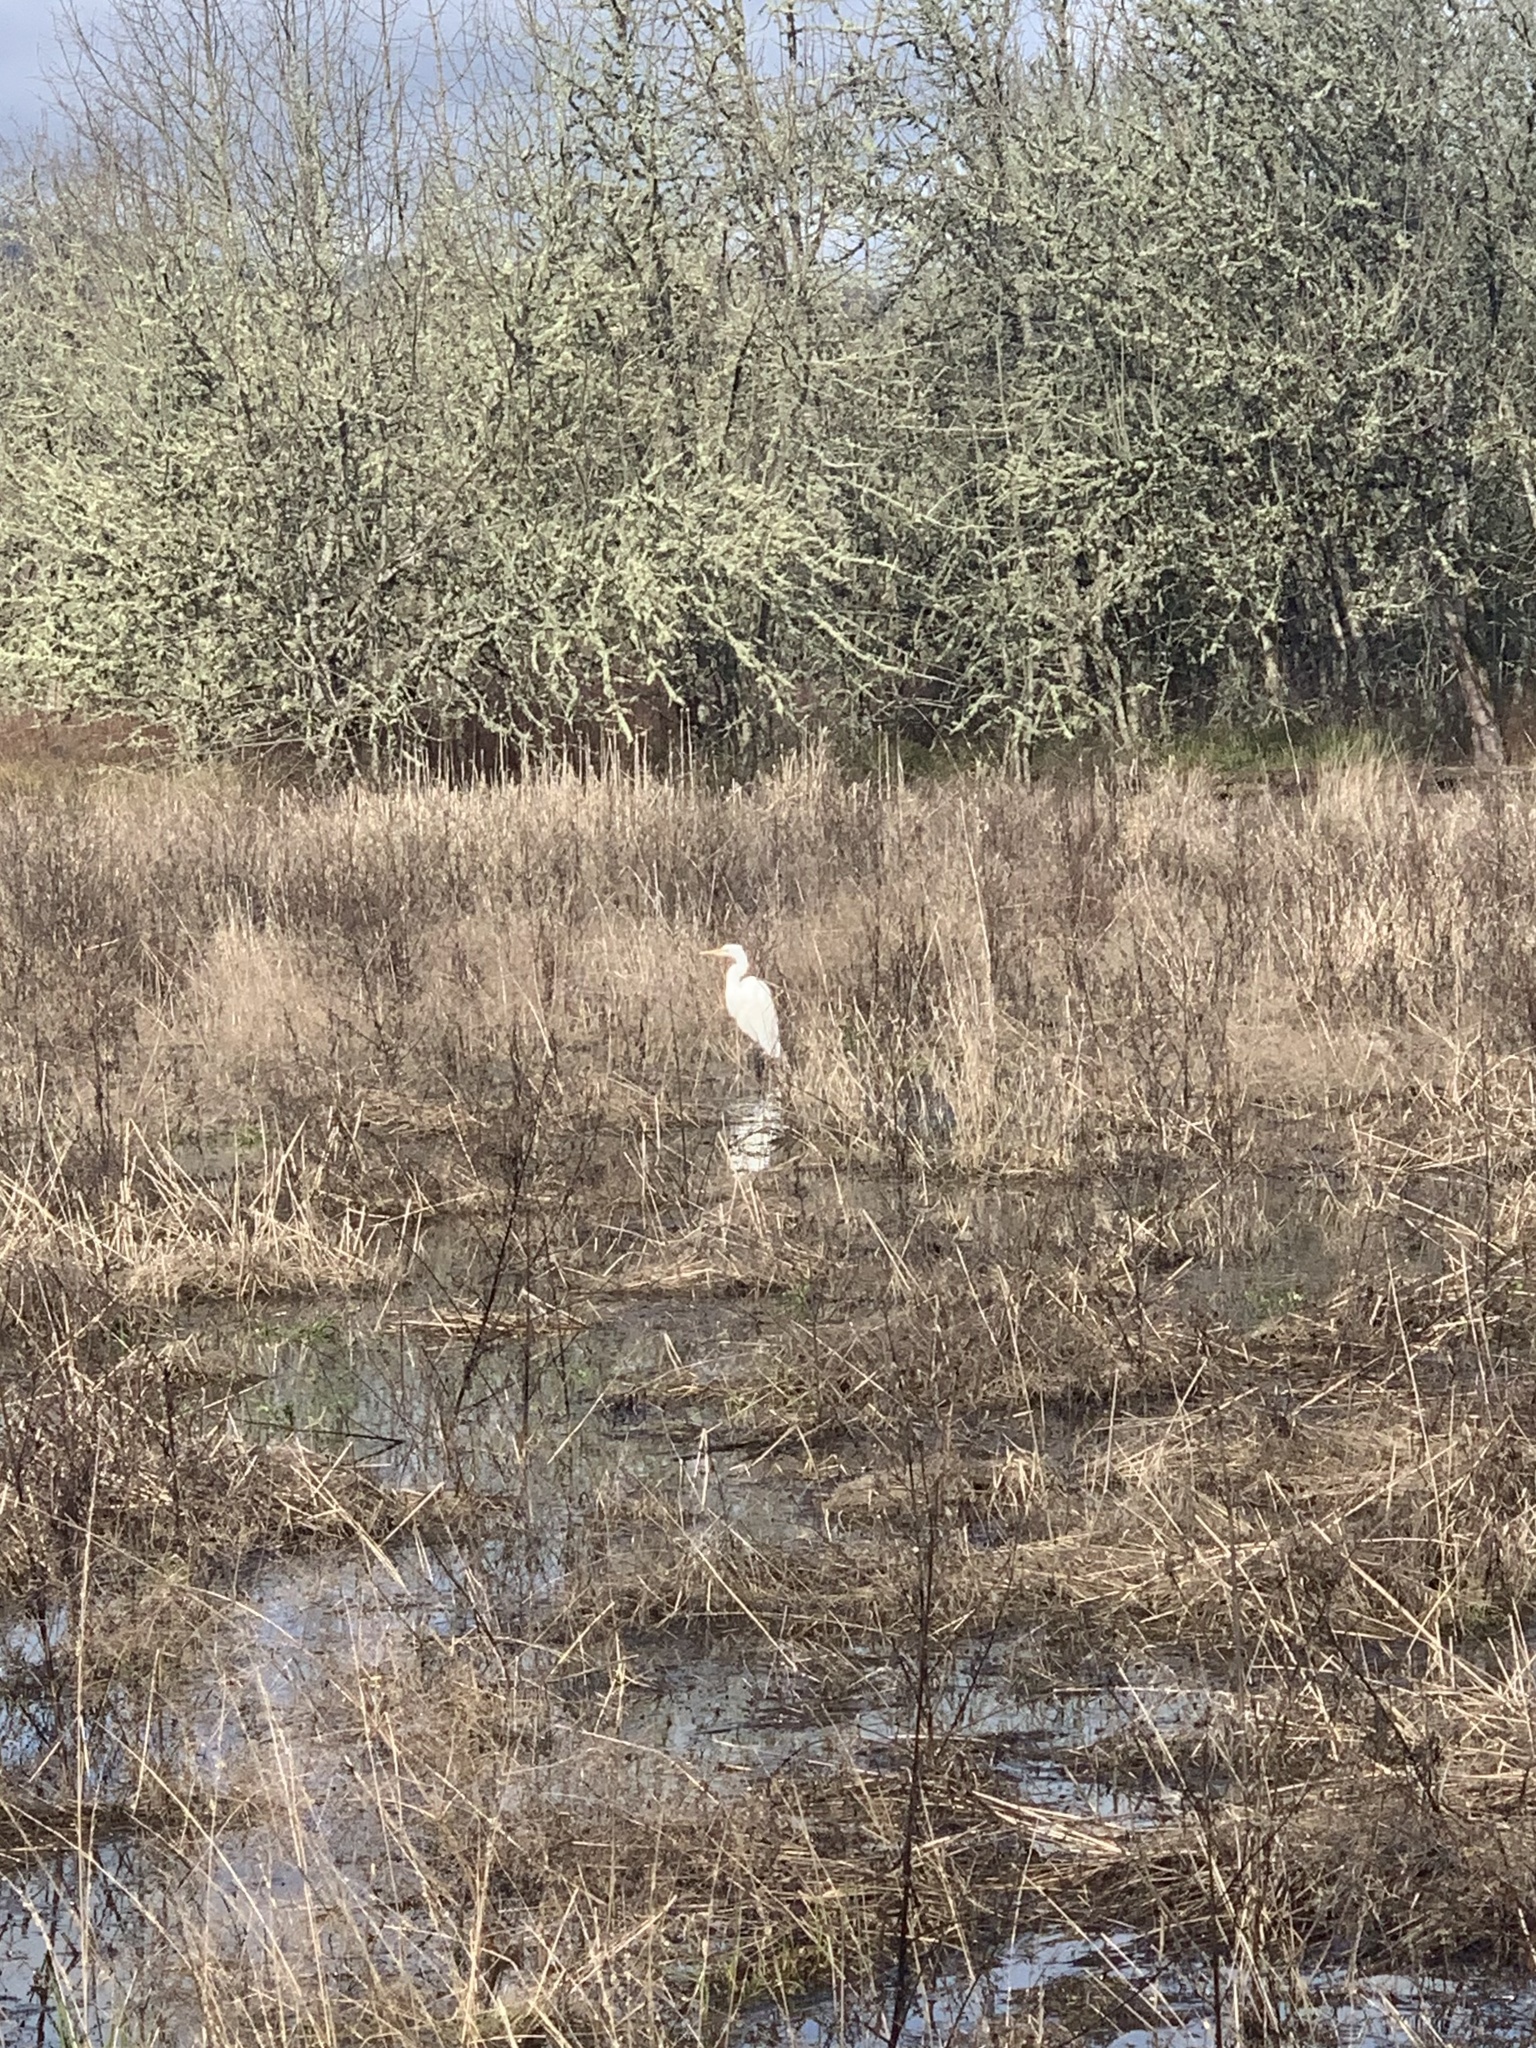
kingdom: Animalia
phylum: Chordata
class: Aves
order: Pelecaniformes
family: Ardeidae
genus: Ardea
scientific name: Ardea alba
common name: Great egret
